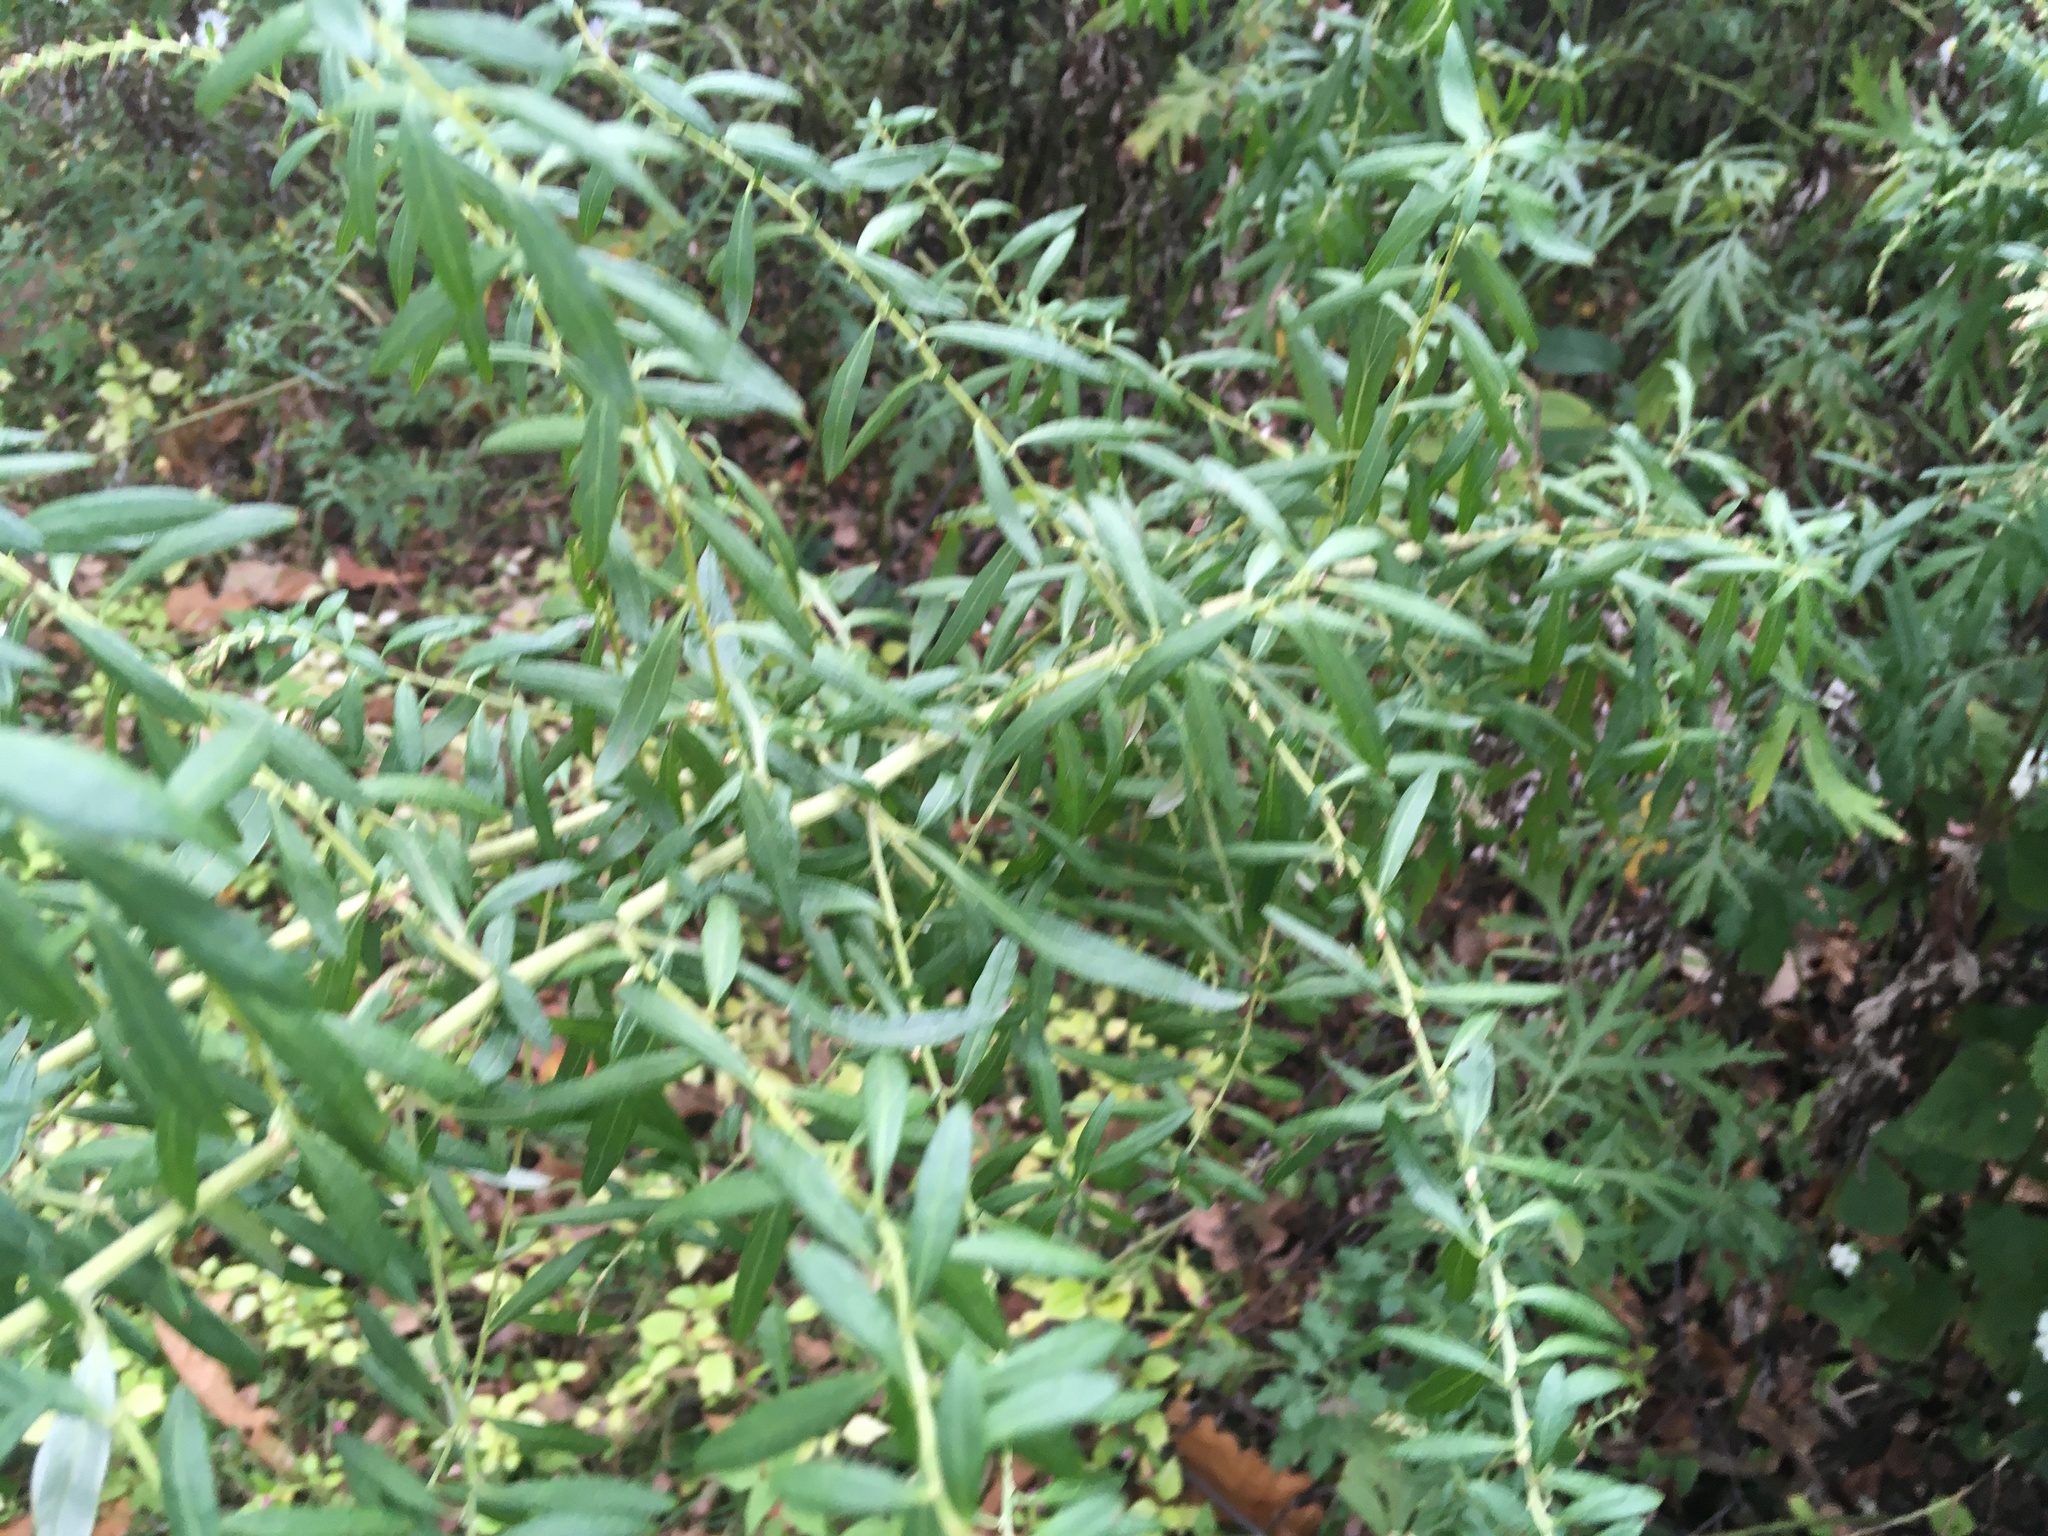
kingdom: Plantae
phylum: Tracheophyta
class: Magnoliopsida
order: Asterales
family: Asteraceae
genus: Artemisia
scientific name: Artemisia vulgaris
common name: Mugwort
